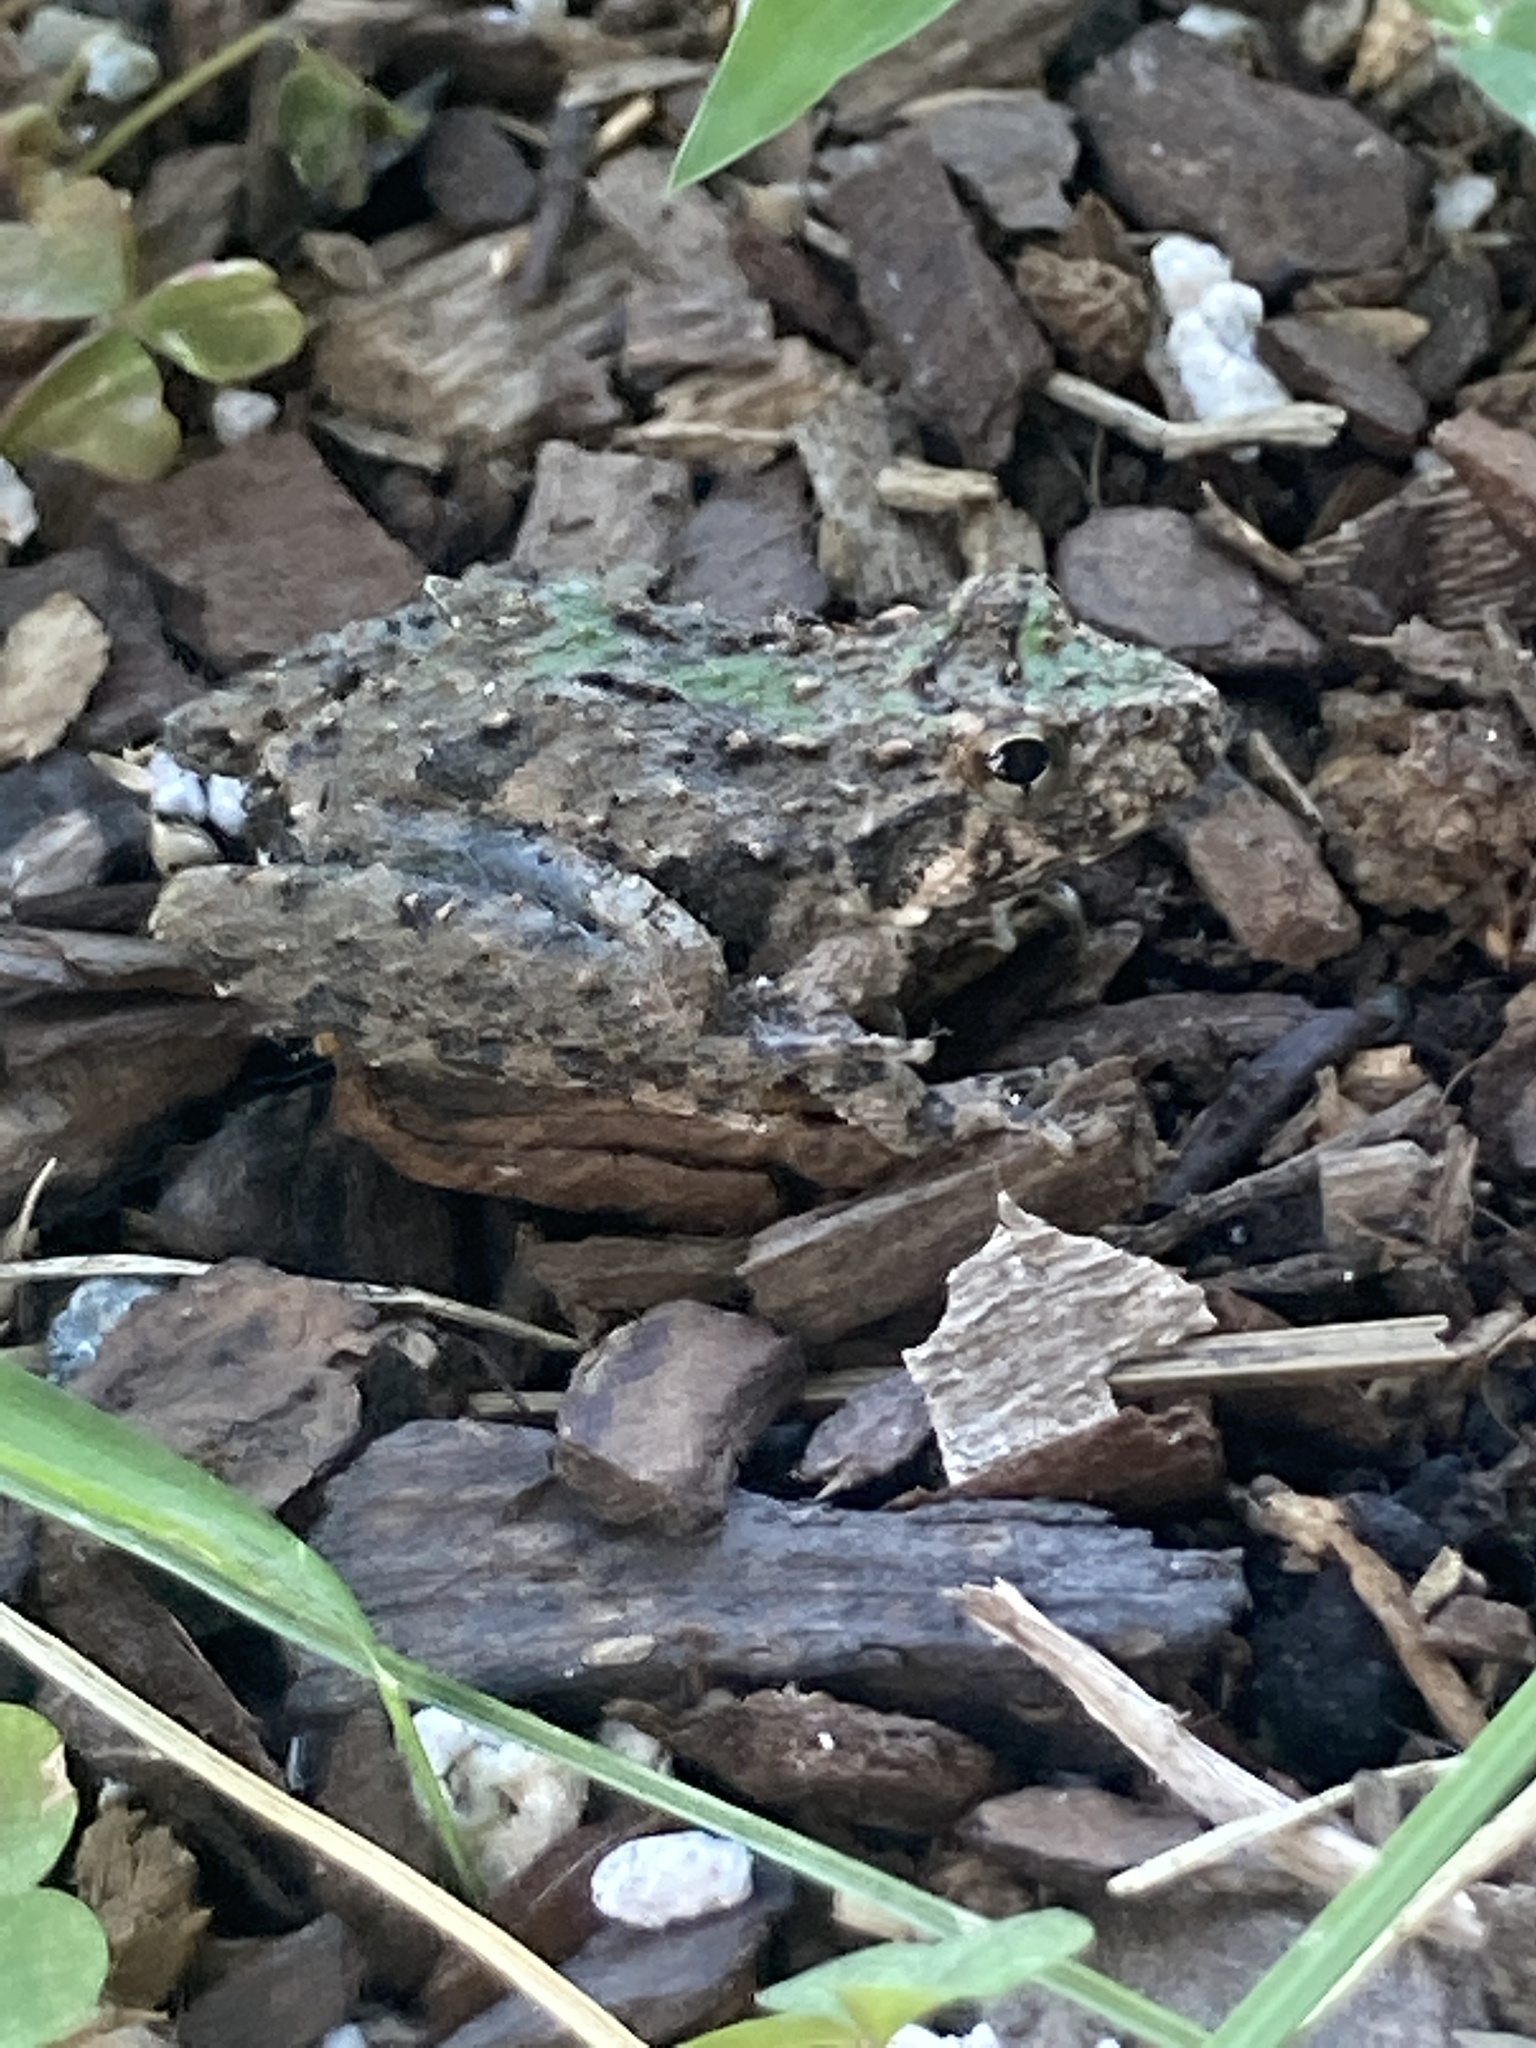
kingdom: Animalia
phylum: Chordata
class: Amphibia
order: Anura
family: Hylidae
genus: Acris
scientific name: Acris blanchardi
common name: Blanchard's cricket frog
